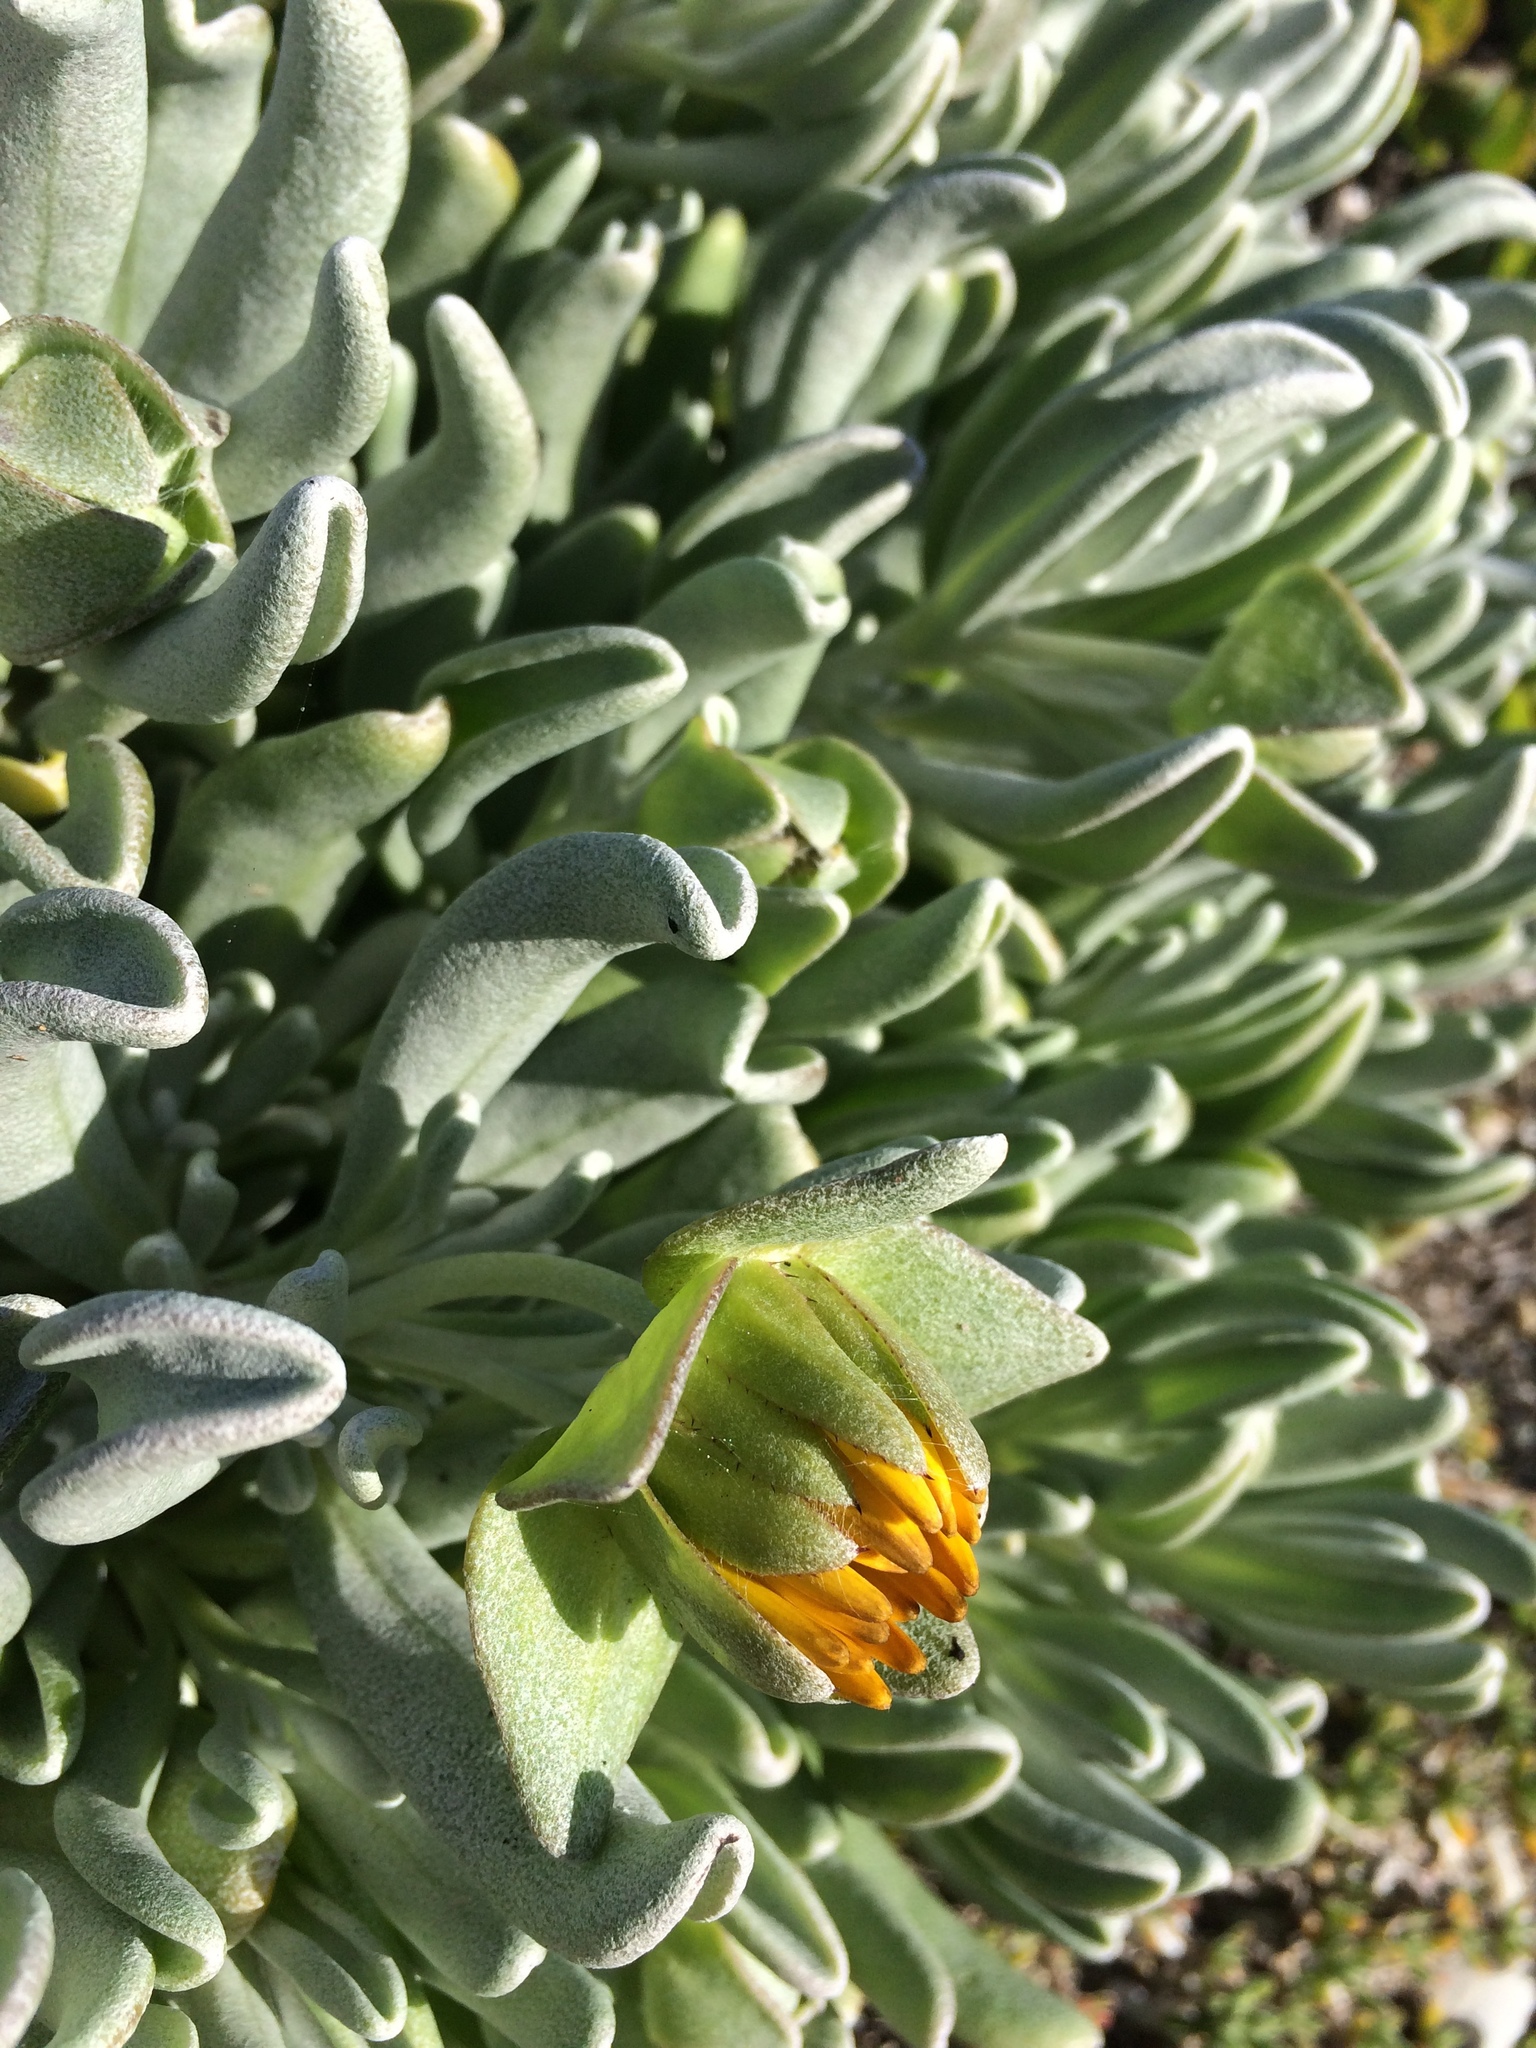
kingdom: Plantae
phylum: Tracheophyta
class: Magnoliopsida
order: Asterales
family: Asteraceae
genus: Didelta
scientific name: Didelta carnosa
